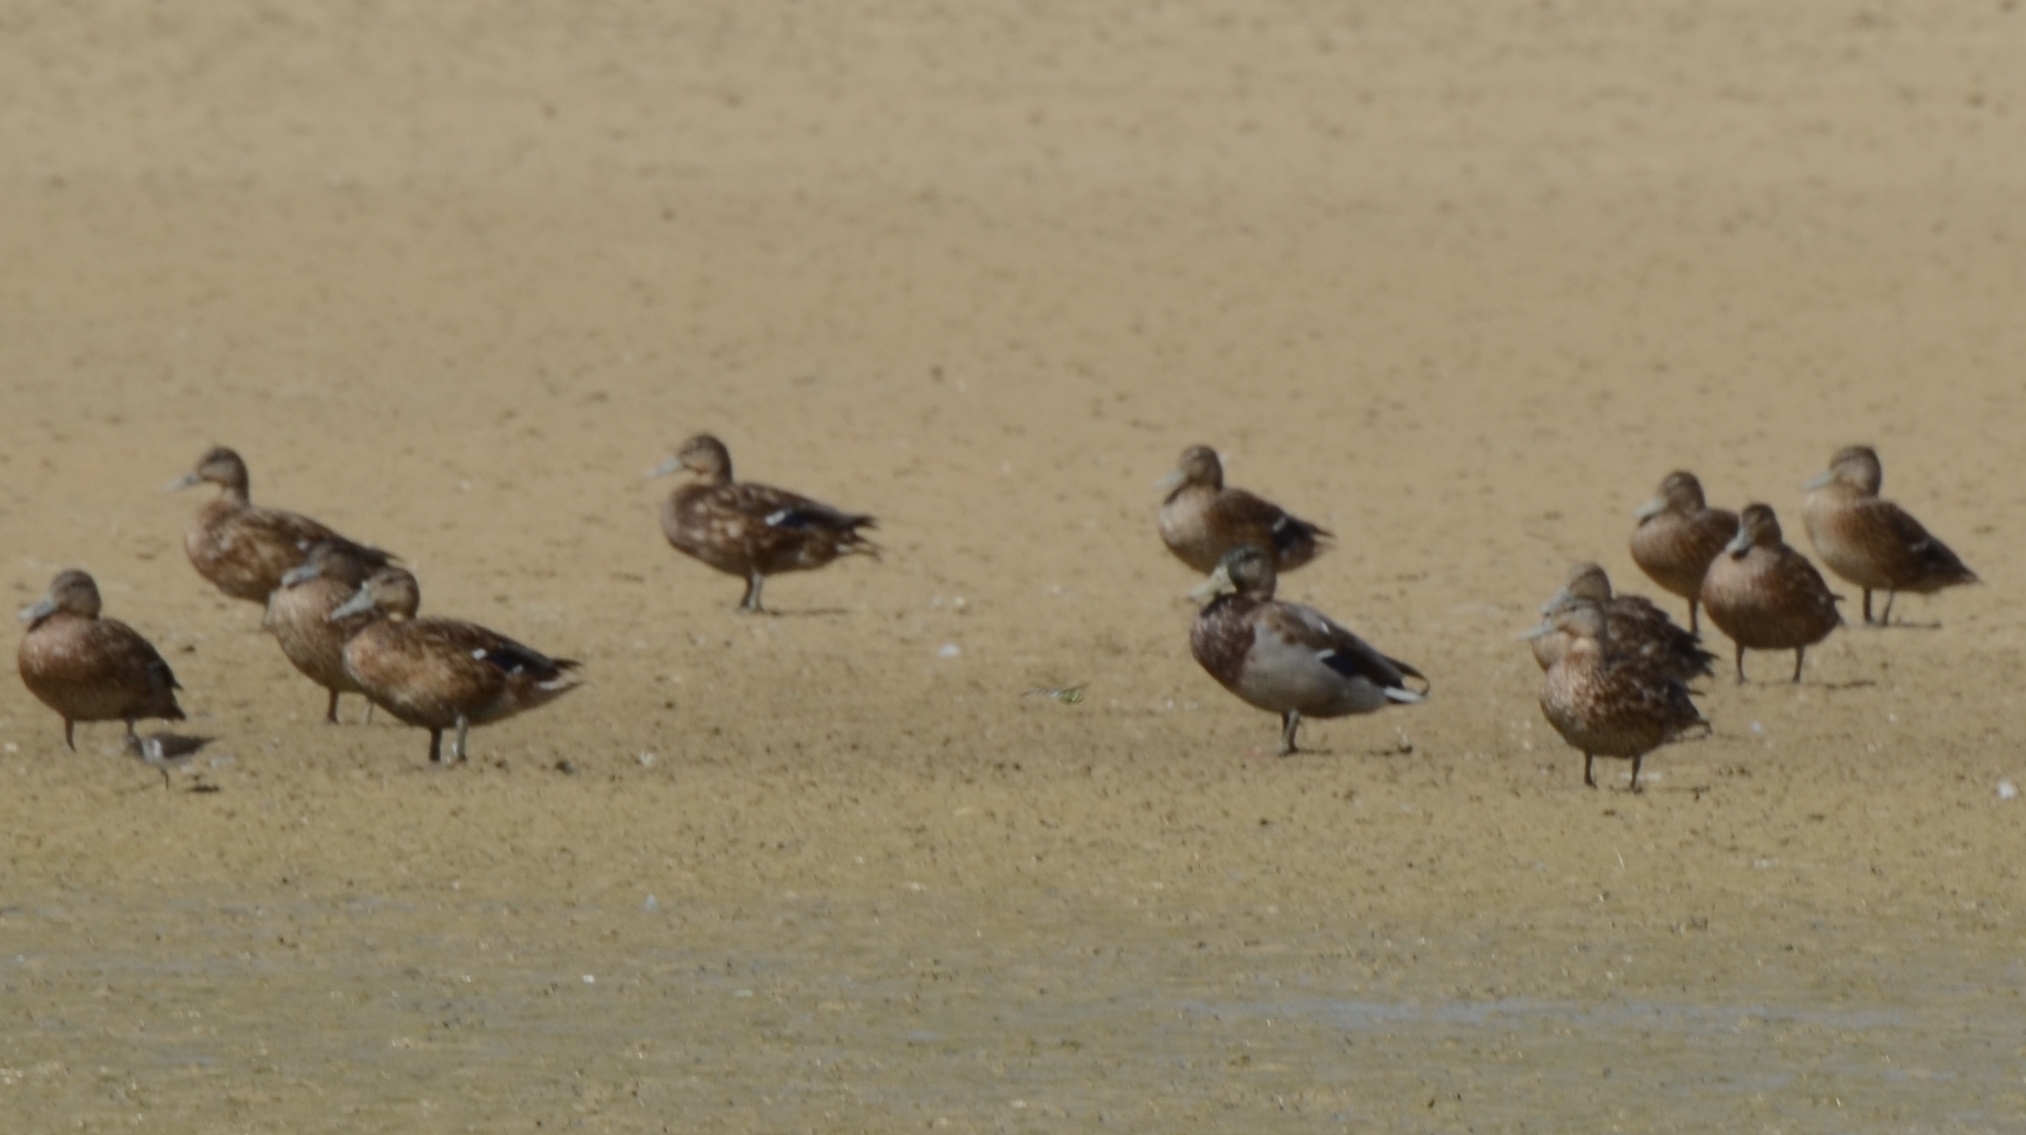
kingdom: Animalia
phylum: Chordata
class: Aves
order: Anseriformes
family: Anatidae
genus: Anas
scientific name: Anas platyrhynchos
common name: Mallard
